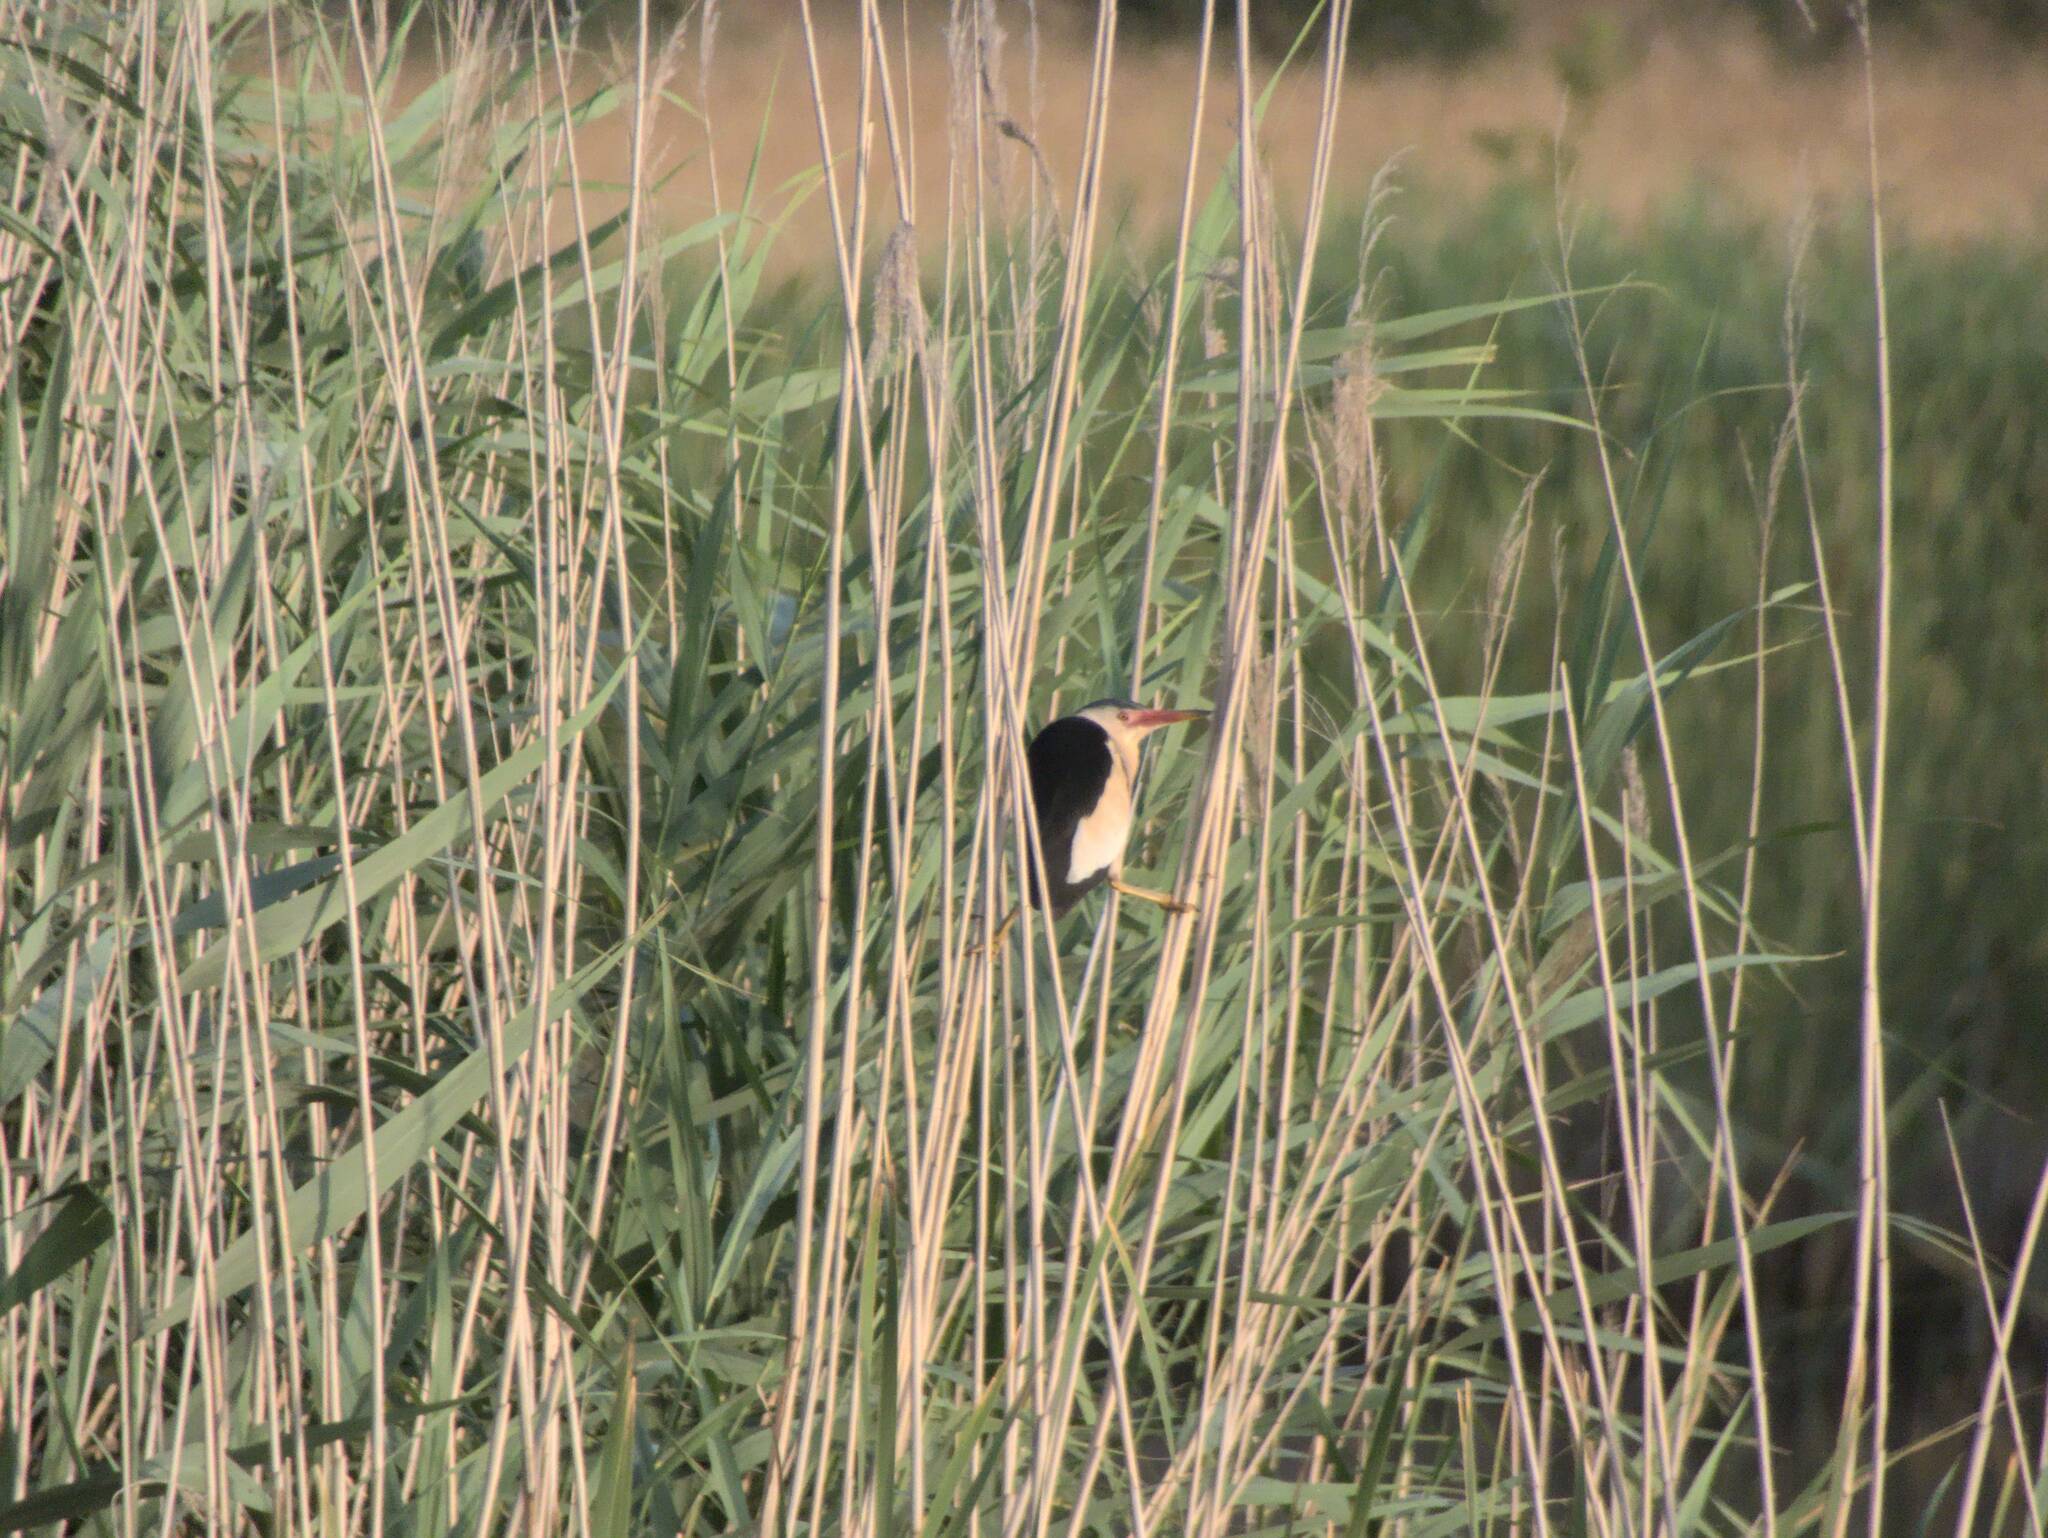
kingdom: Animalia
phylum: Chordata
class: Aves
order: Pelecaniformes
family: Ardeidae
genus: Ixobrychus
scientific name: Ixobrychus minutus
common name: Little bittern
